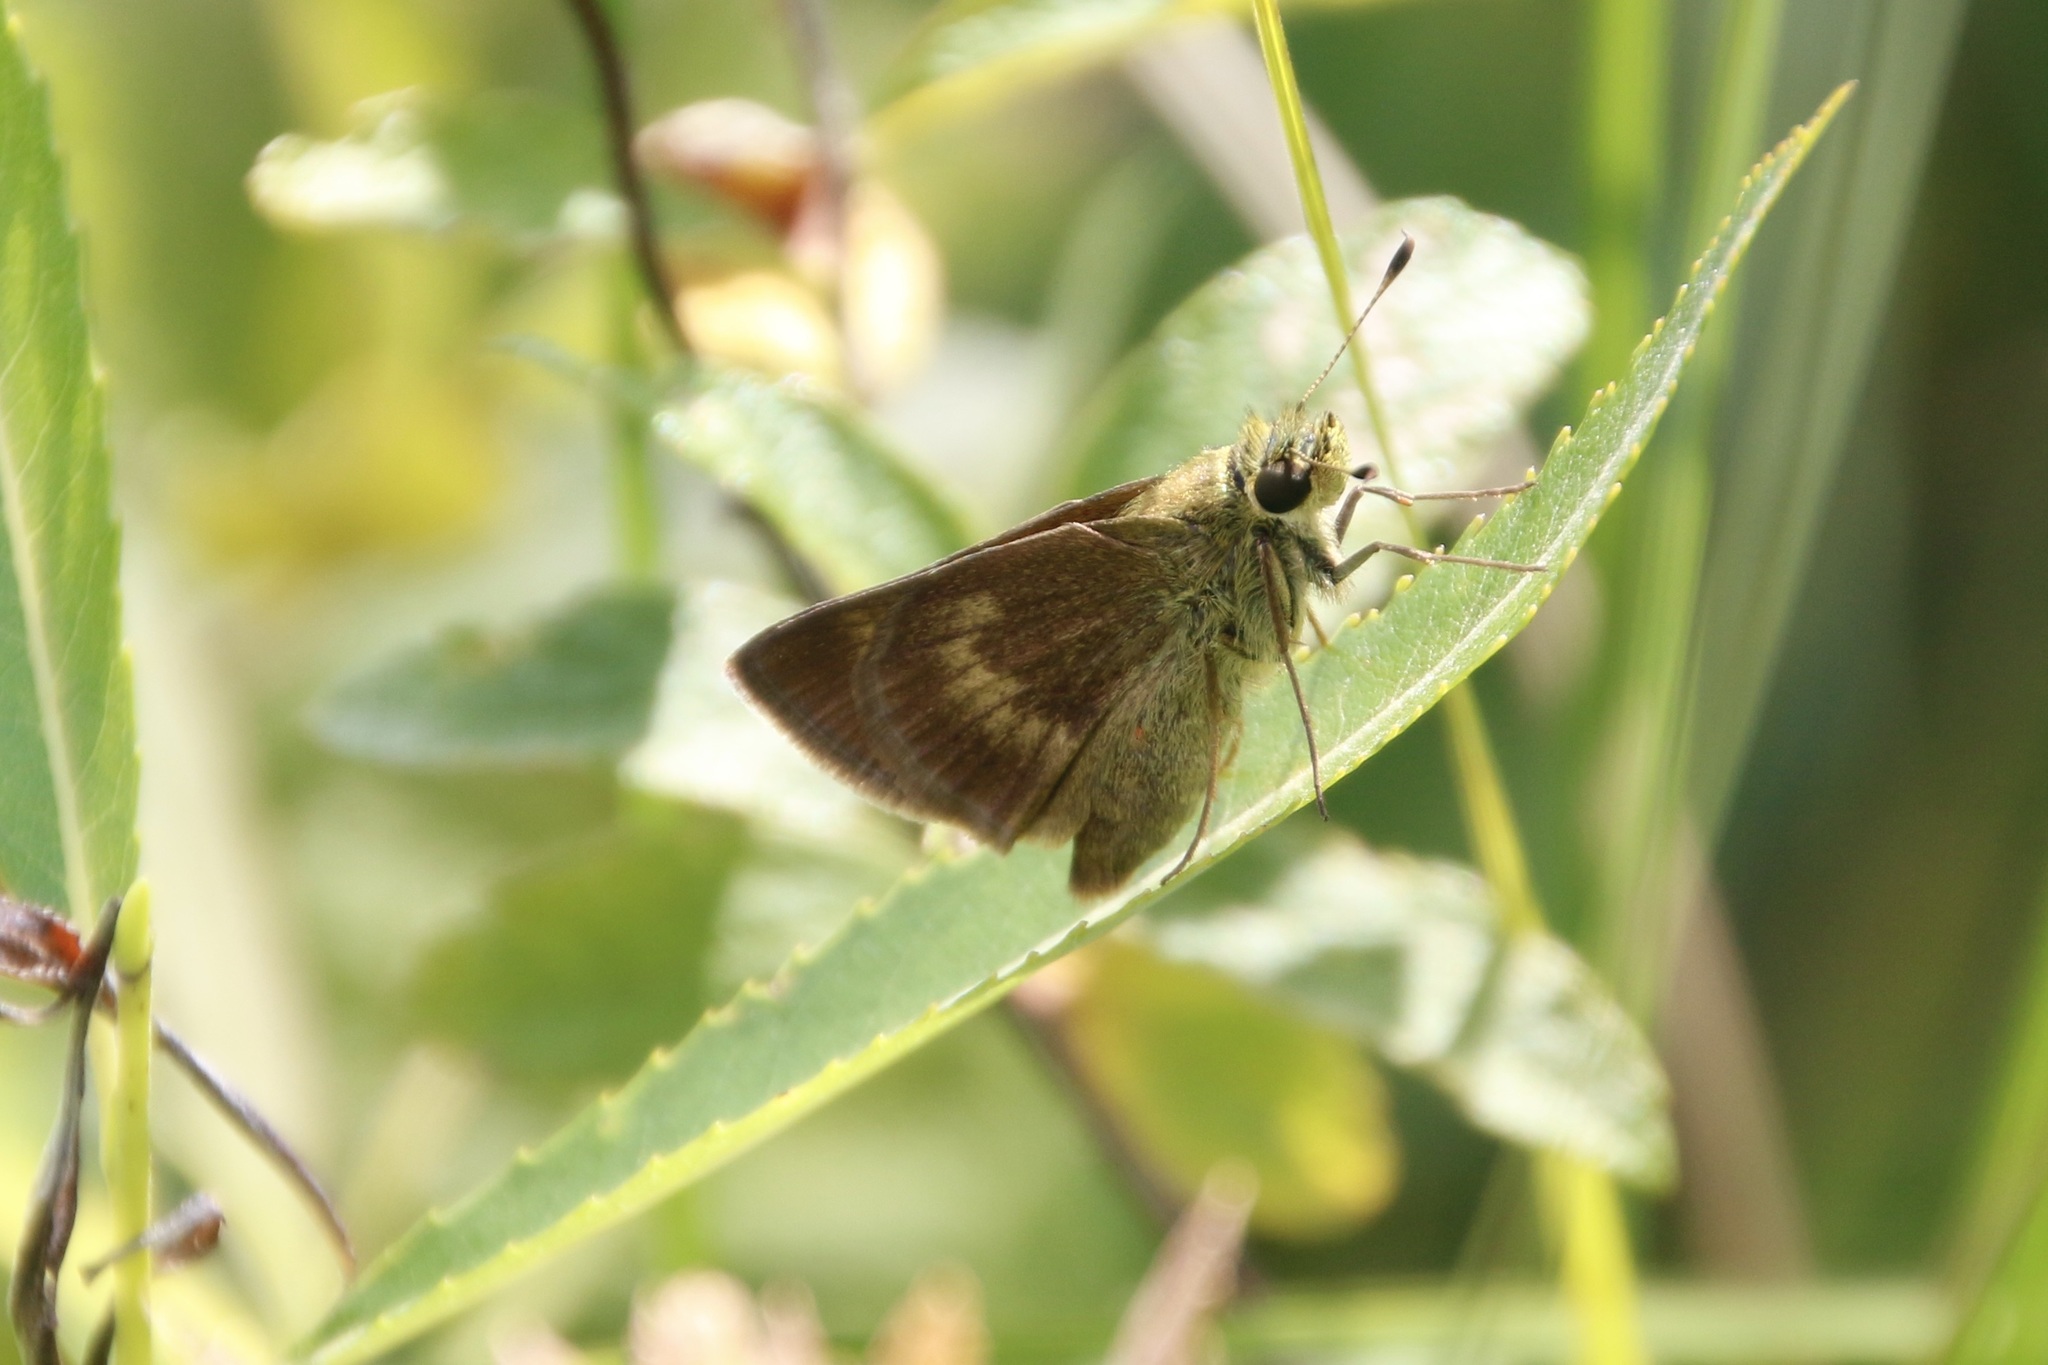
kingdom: Animalia
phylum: Arthropoda
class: Insecta
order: Lepidoptera
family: Hesperiidae
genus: Polites
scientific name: Polites egeremet
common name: Northern broken-dash
